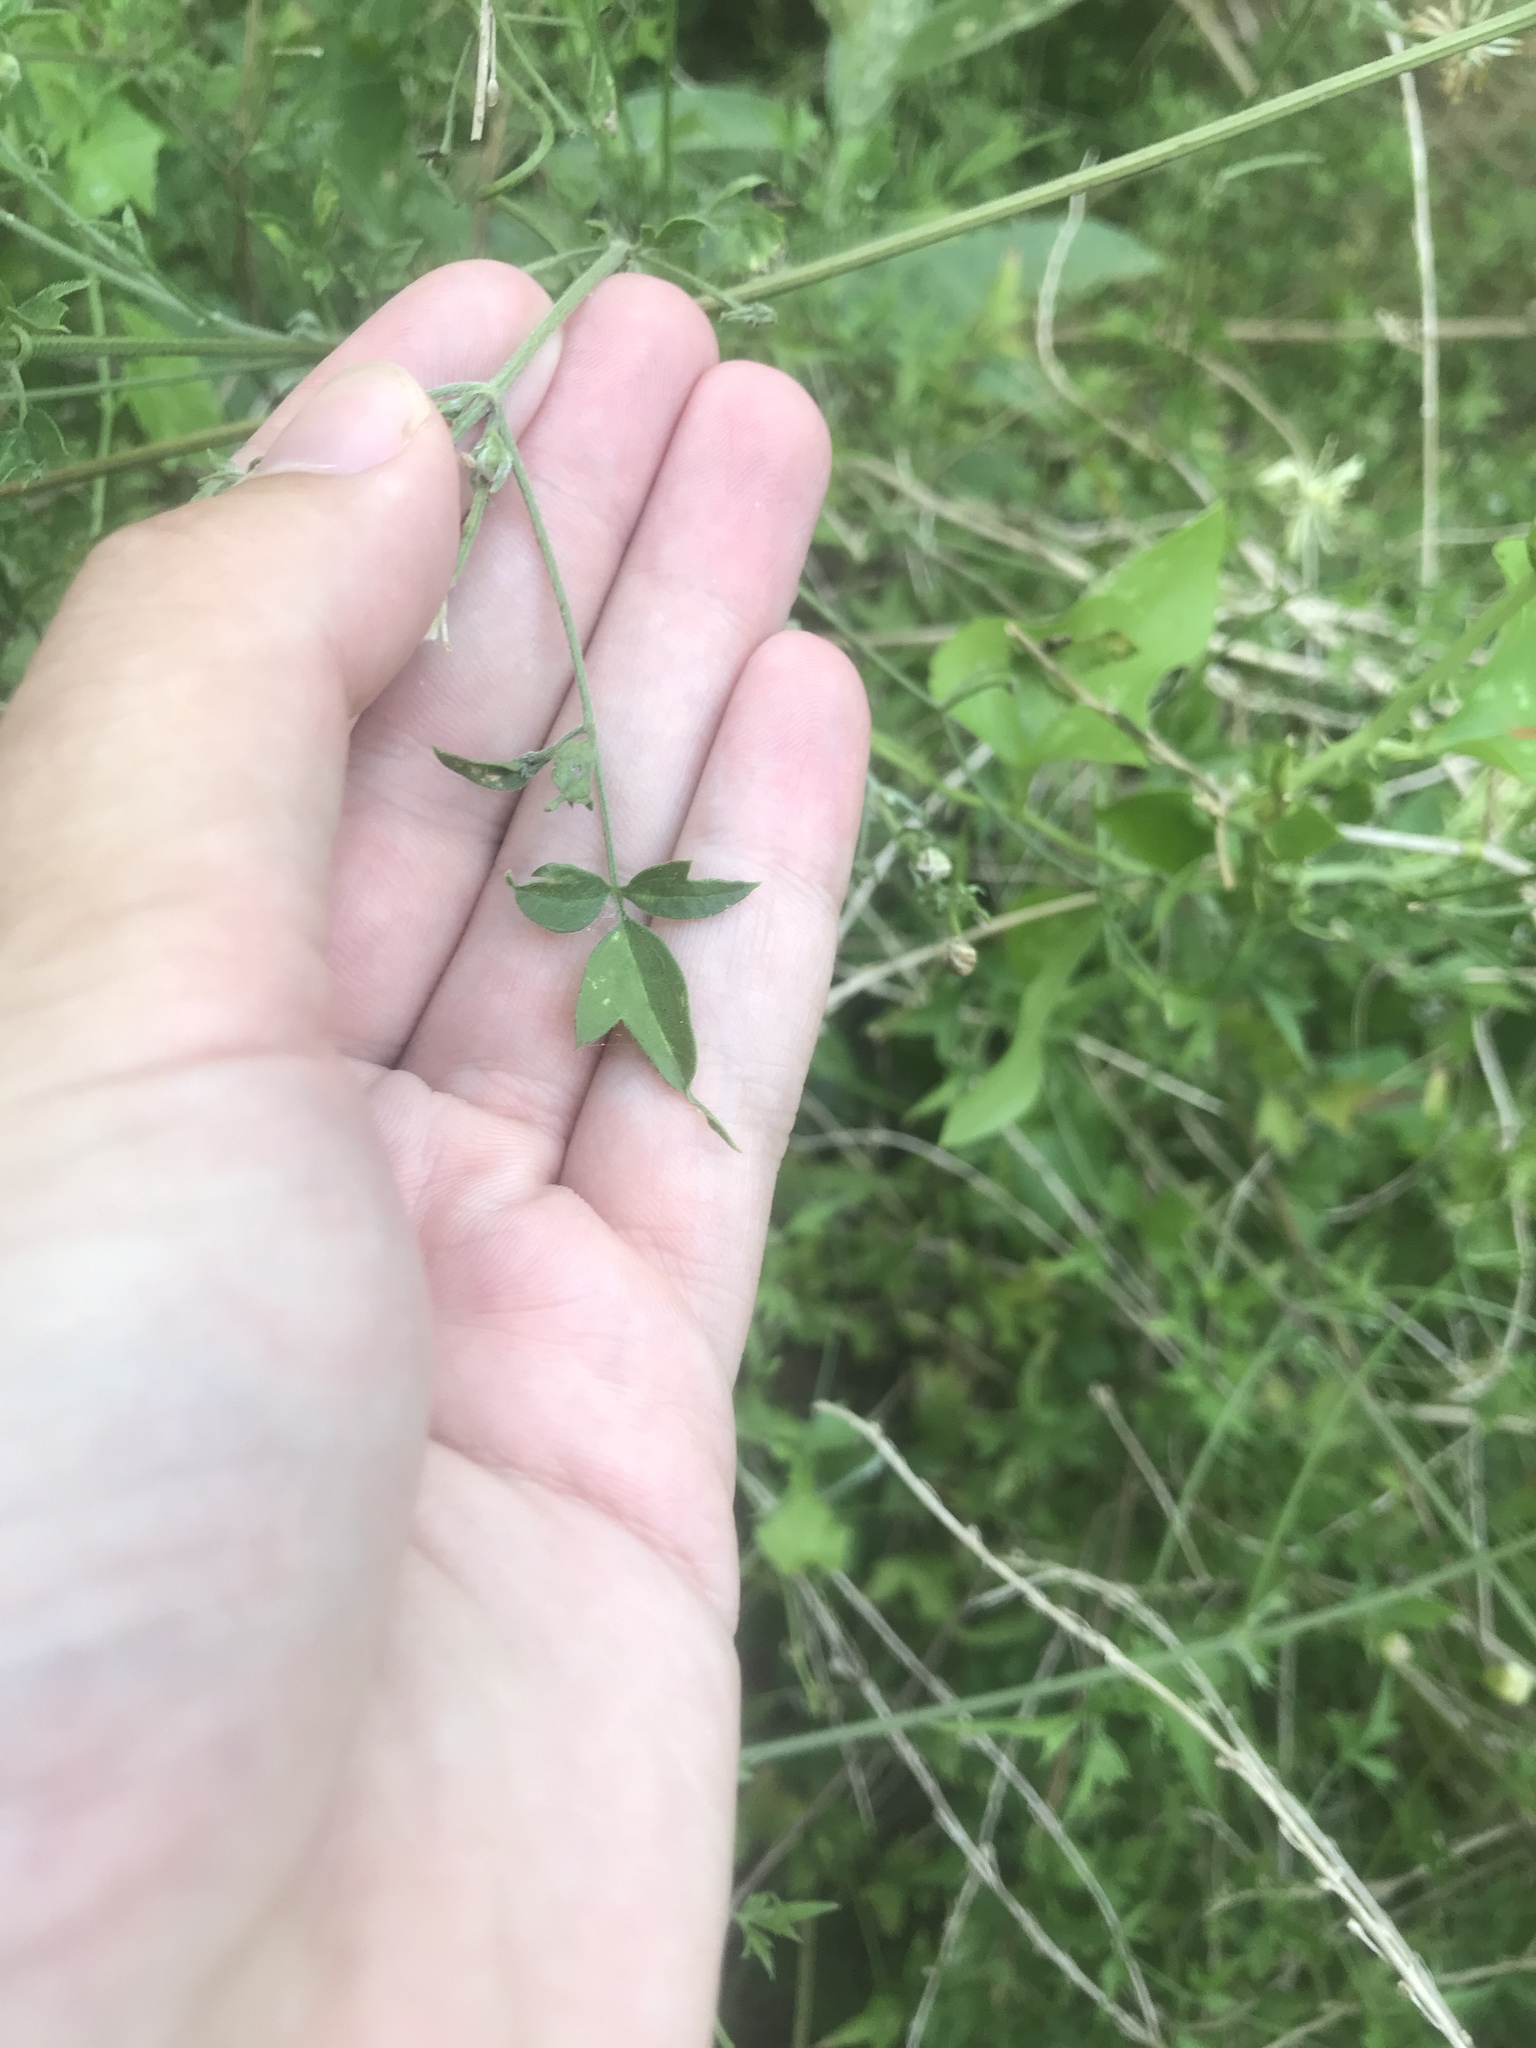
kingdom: Plantae
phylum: Tracheophyta
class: Magnoliopsida
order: Ranunculales
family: Ranunculaceae
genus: Clematis
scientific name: Clematis drummondii
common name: Texas virgin's bower
